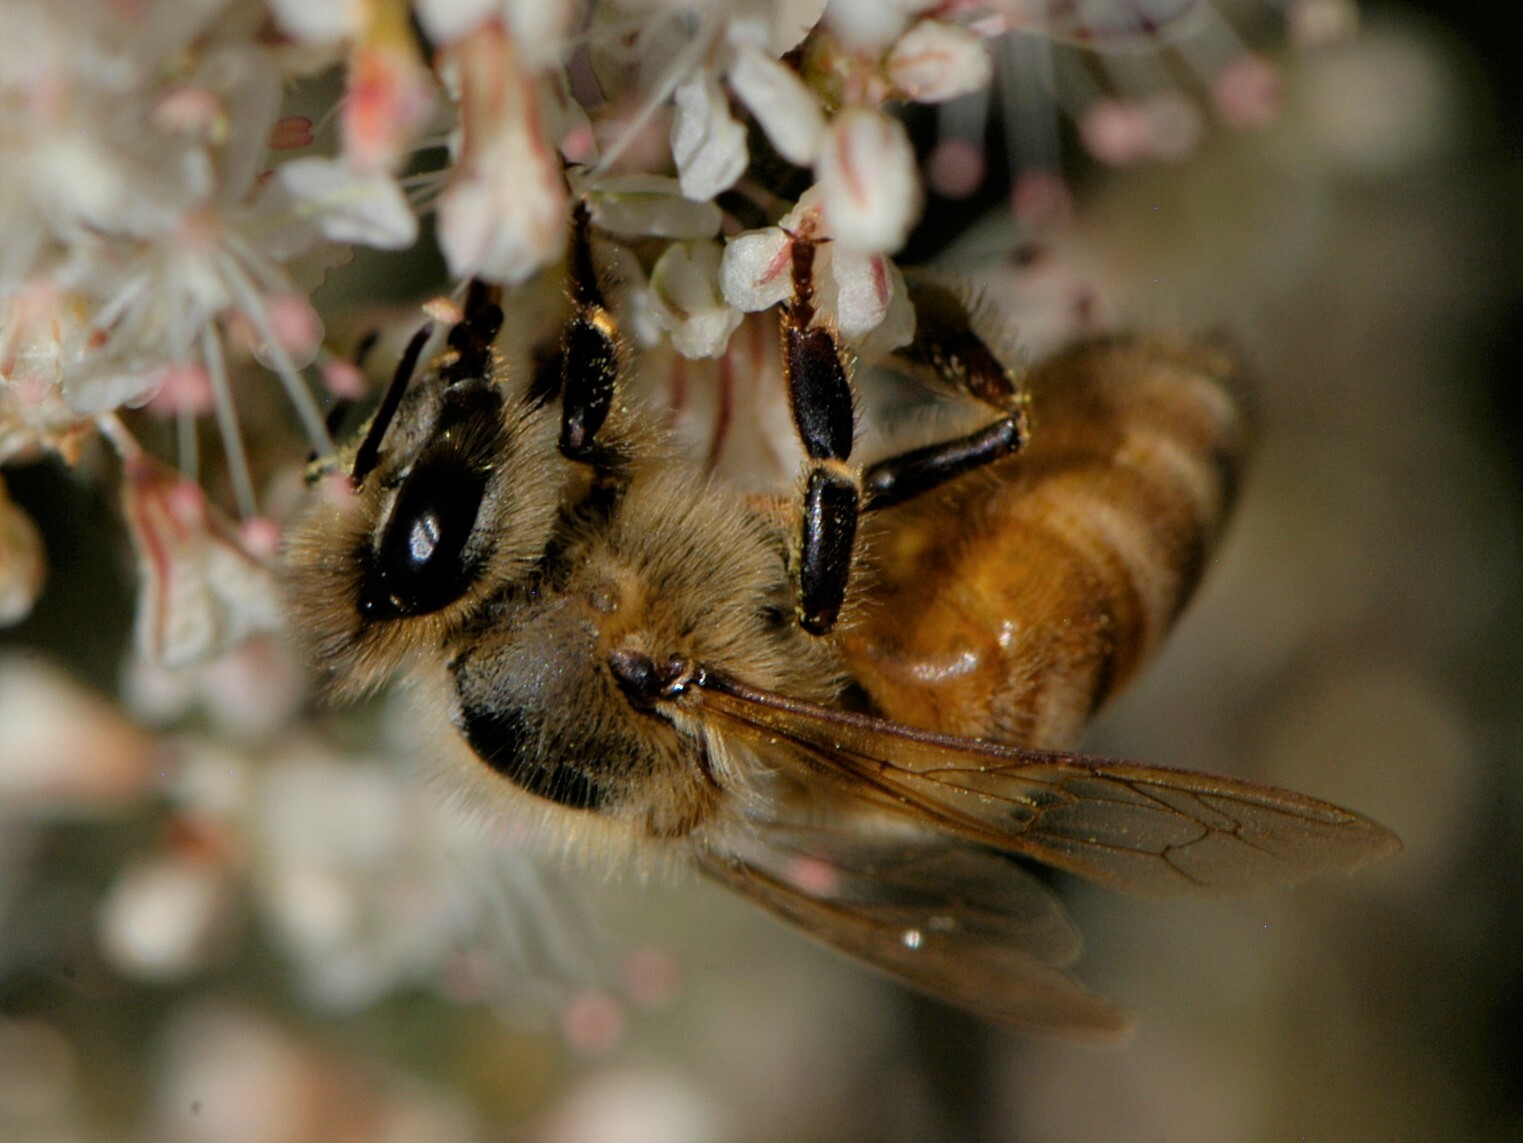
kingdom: Animalia
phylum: Arthropoda
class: Insecta
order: Hymenoptera
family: Apidae
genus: Apis
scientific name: Apis mellifera
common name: Honey bee
